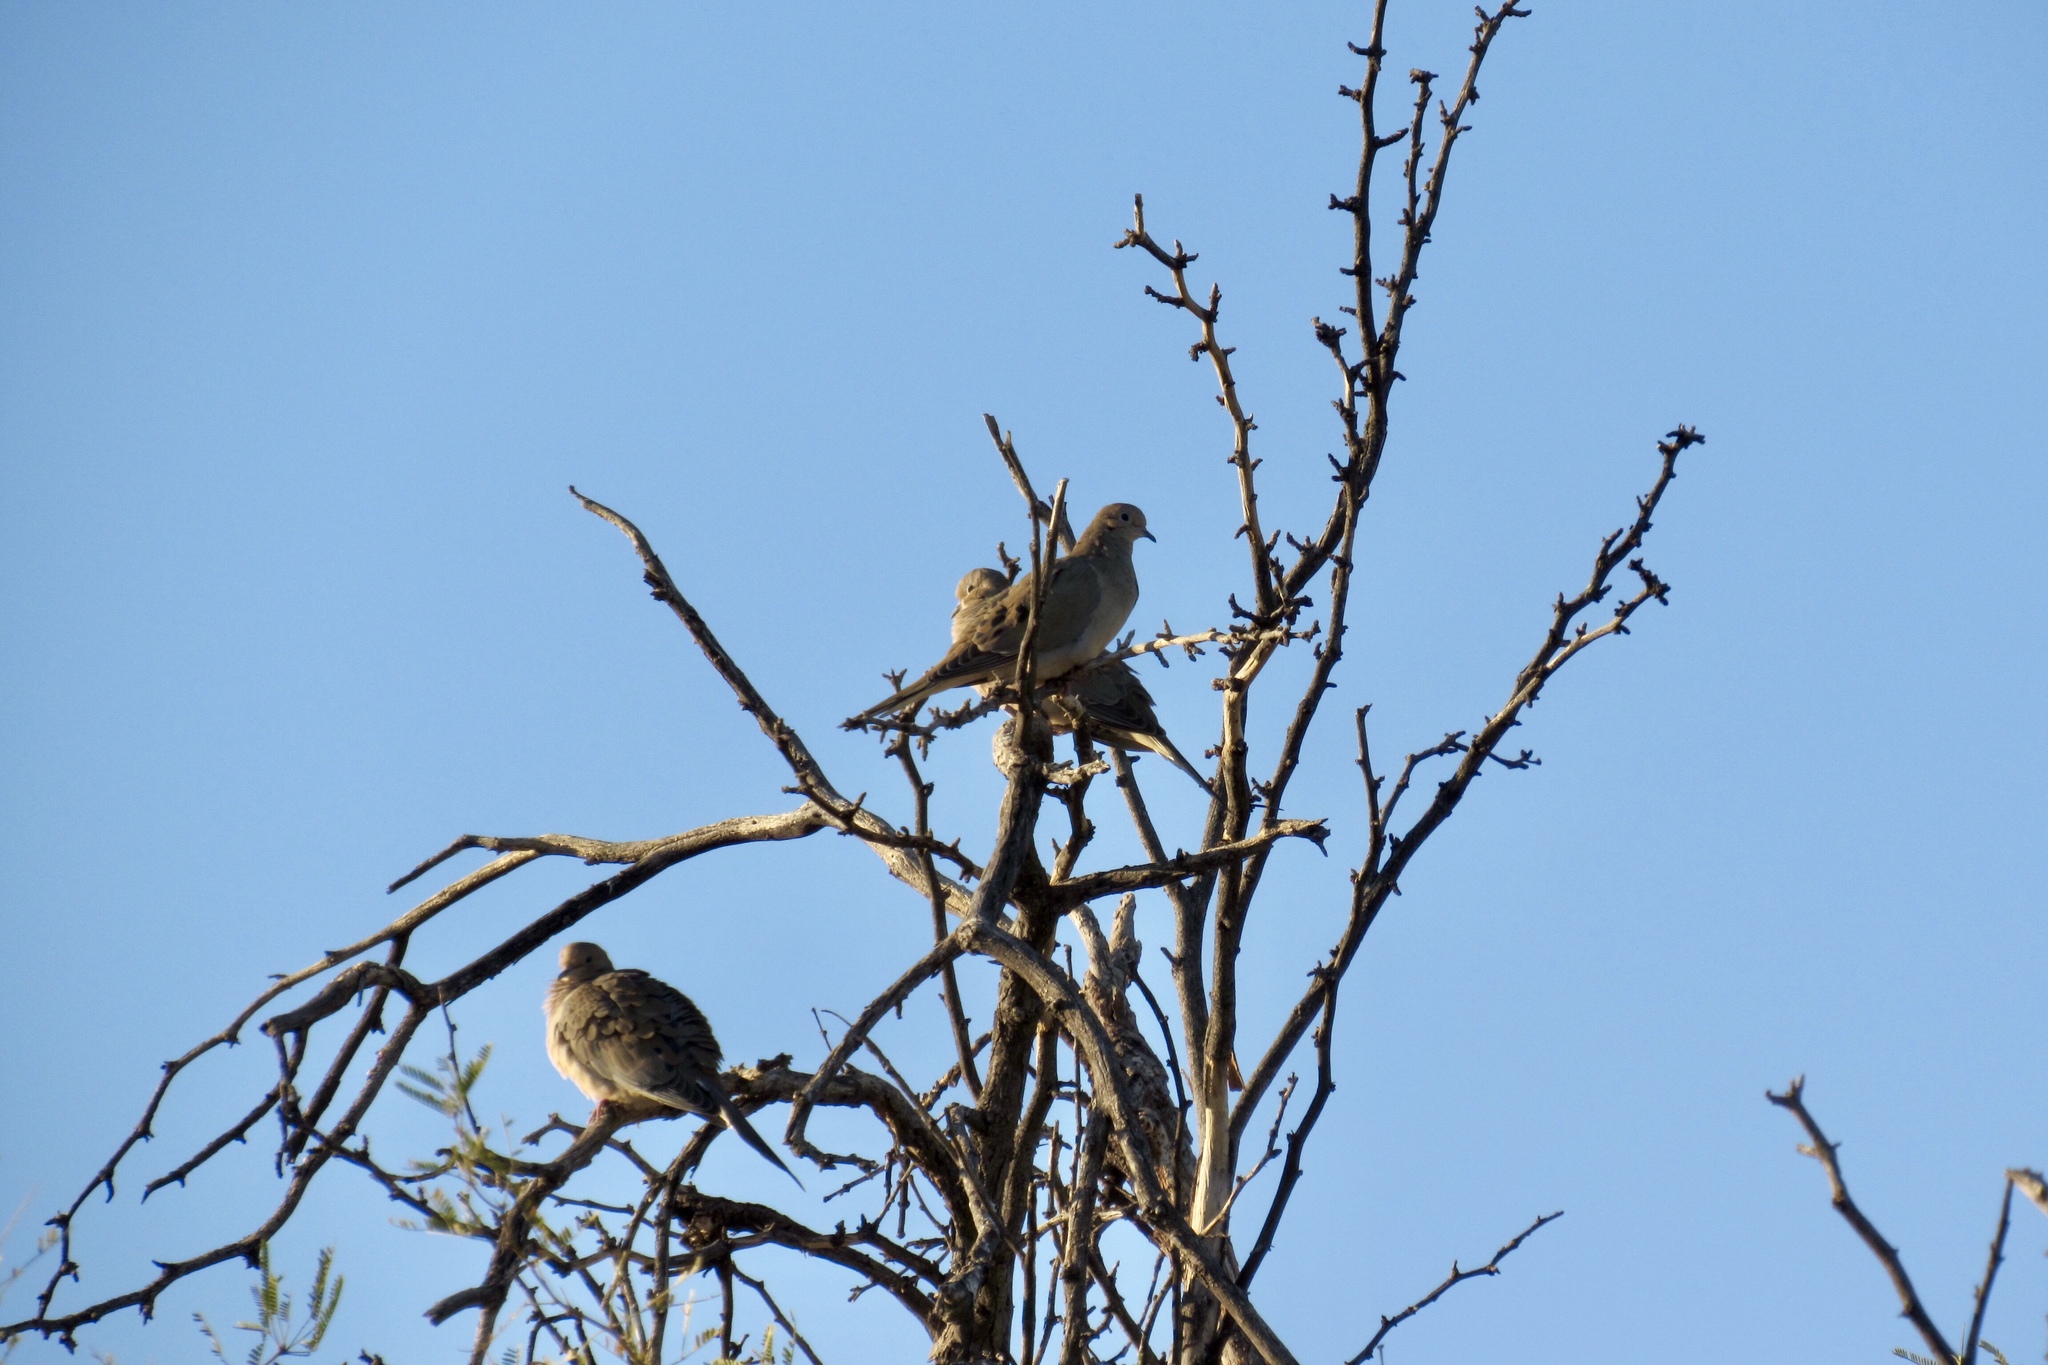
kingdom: Animalia
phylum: Chordata
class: Aves
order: Columbiformes
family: Columbidae
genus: Zenaida
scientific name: Zenaida macroura
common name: Mourning dove
